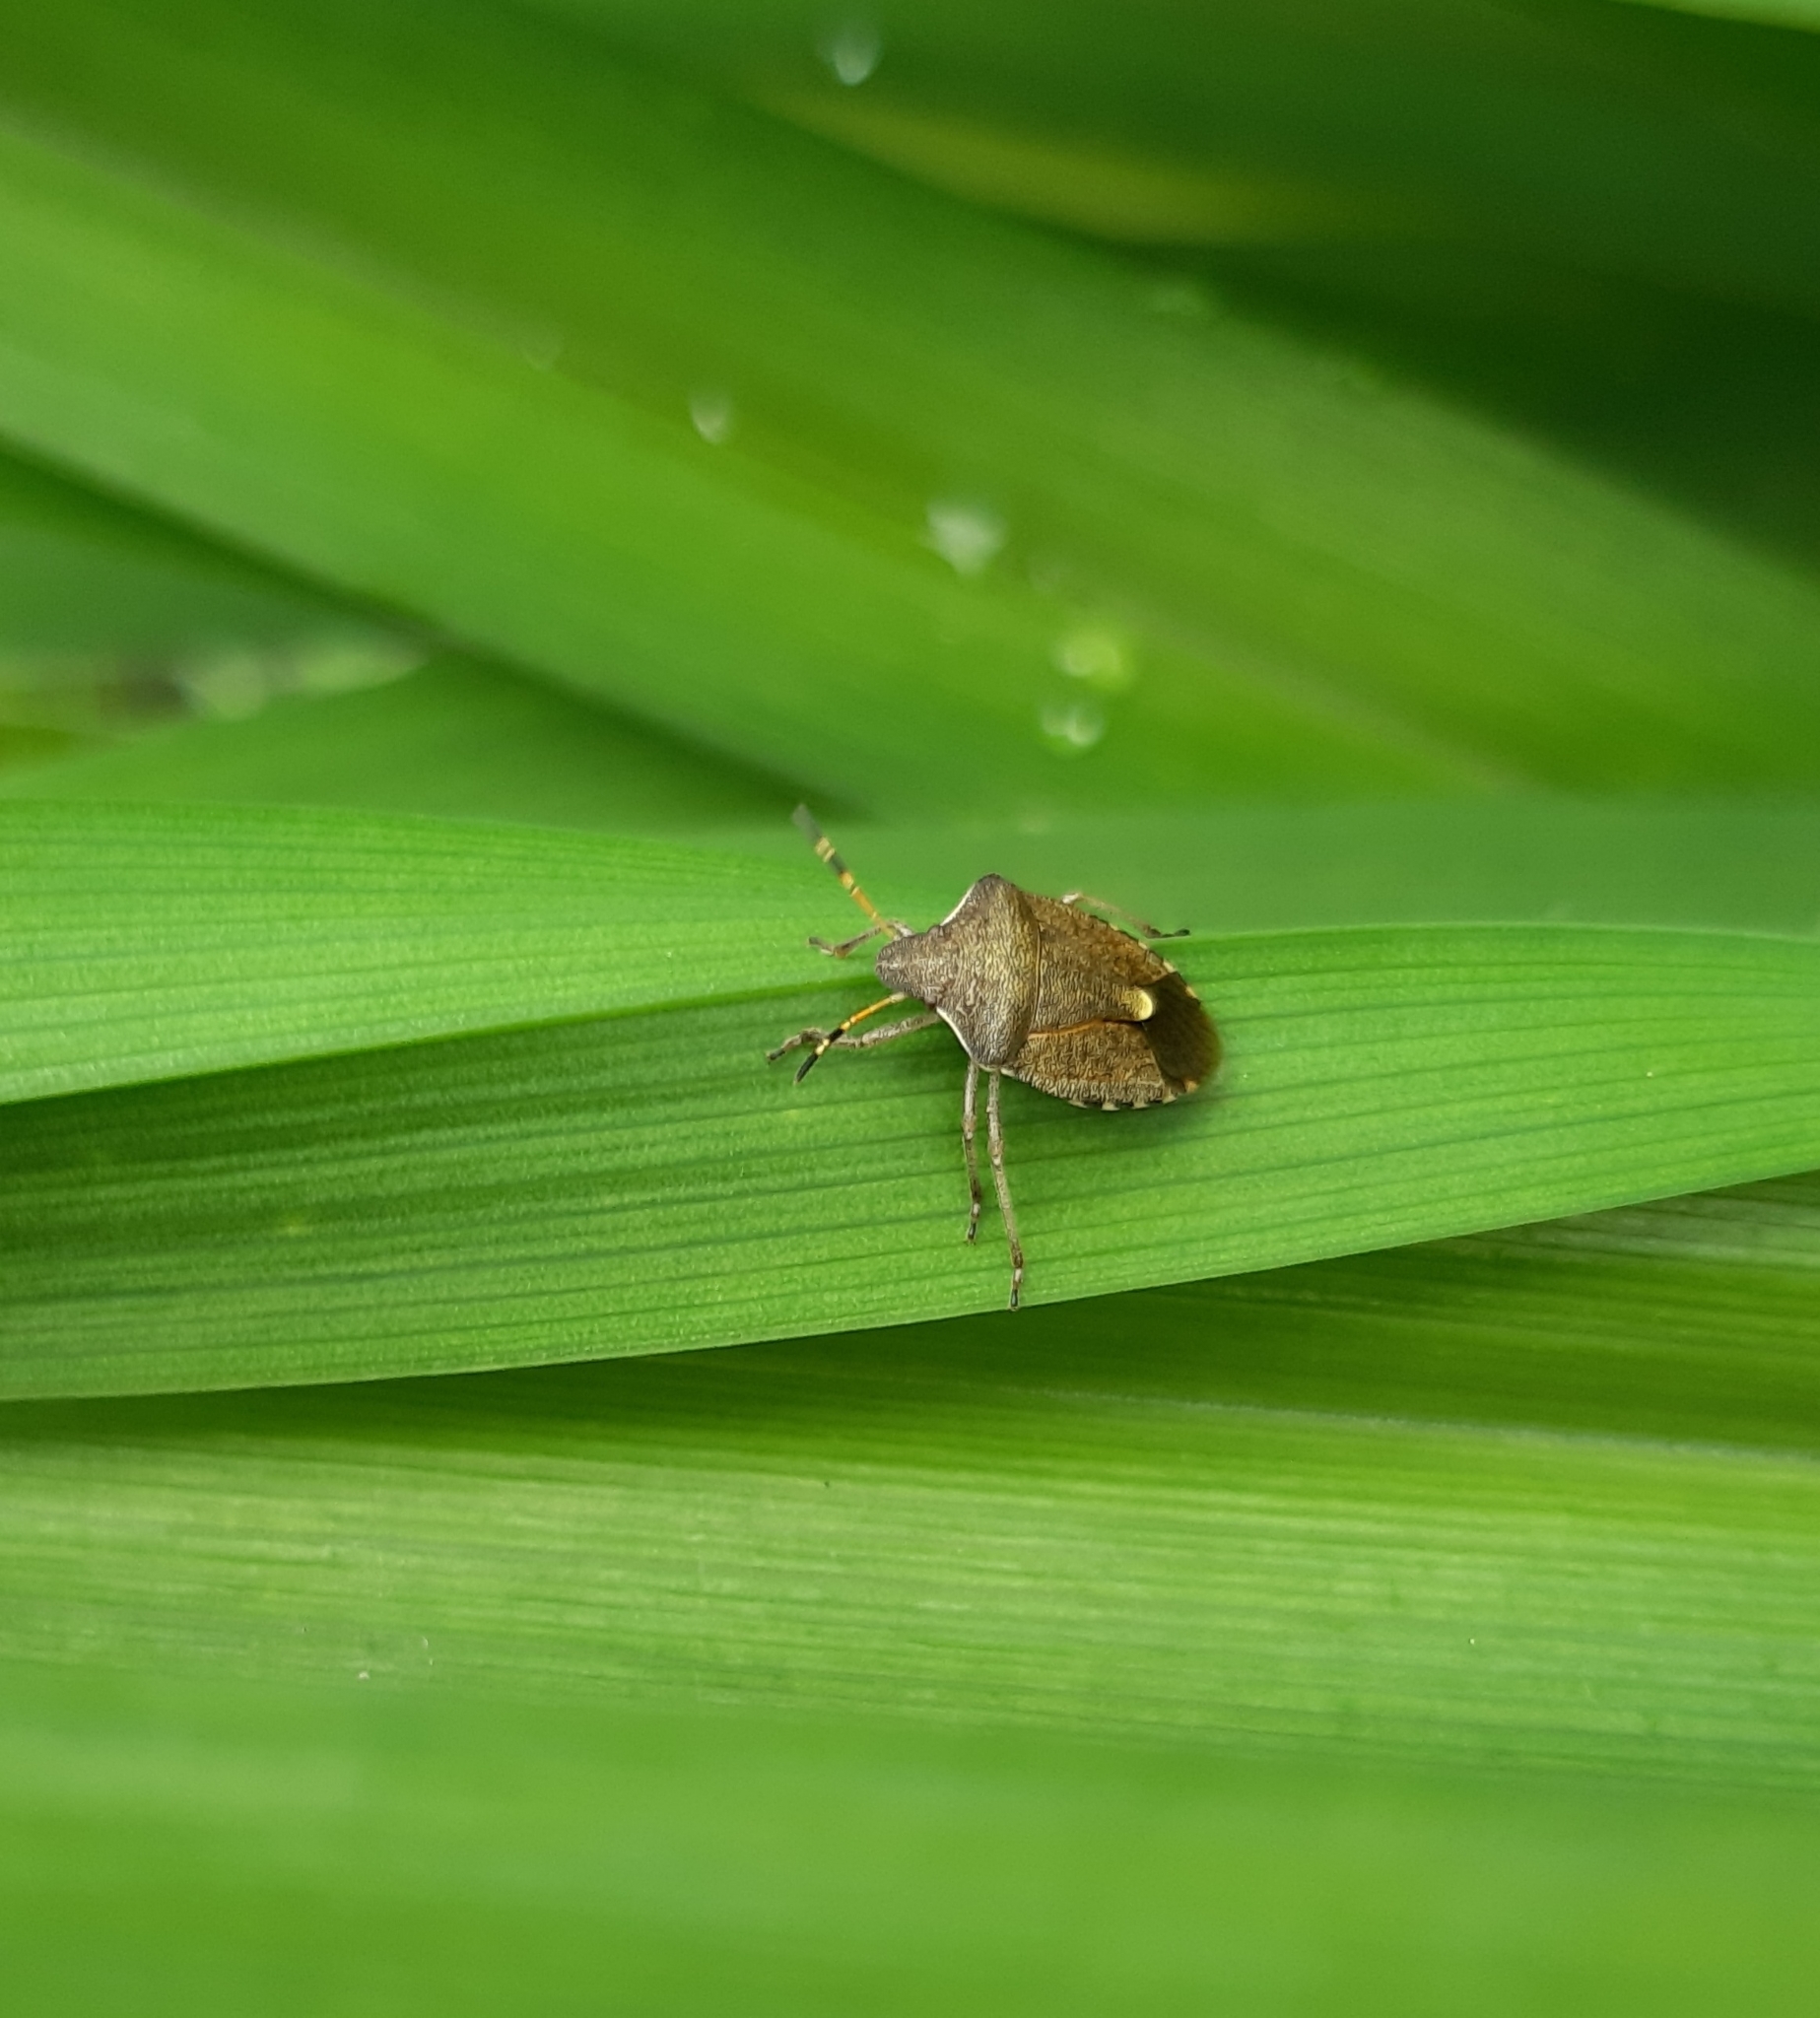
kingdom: Animalia
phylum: Arthropoda
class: Insecta
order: Hemiptera
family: Pentatomidae
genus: Holcostethus
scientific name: Holcostethus strictus
